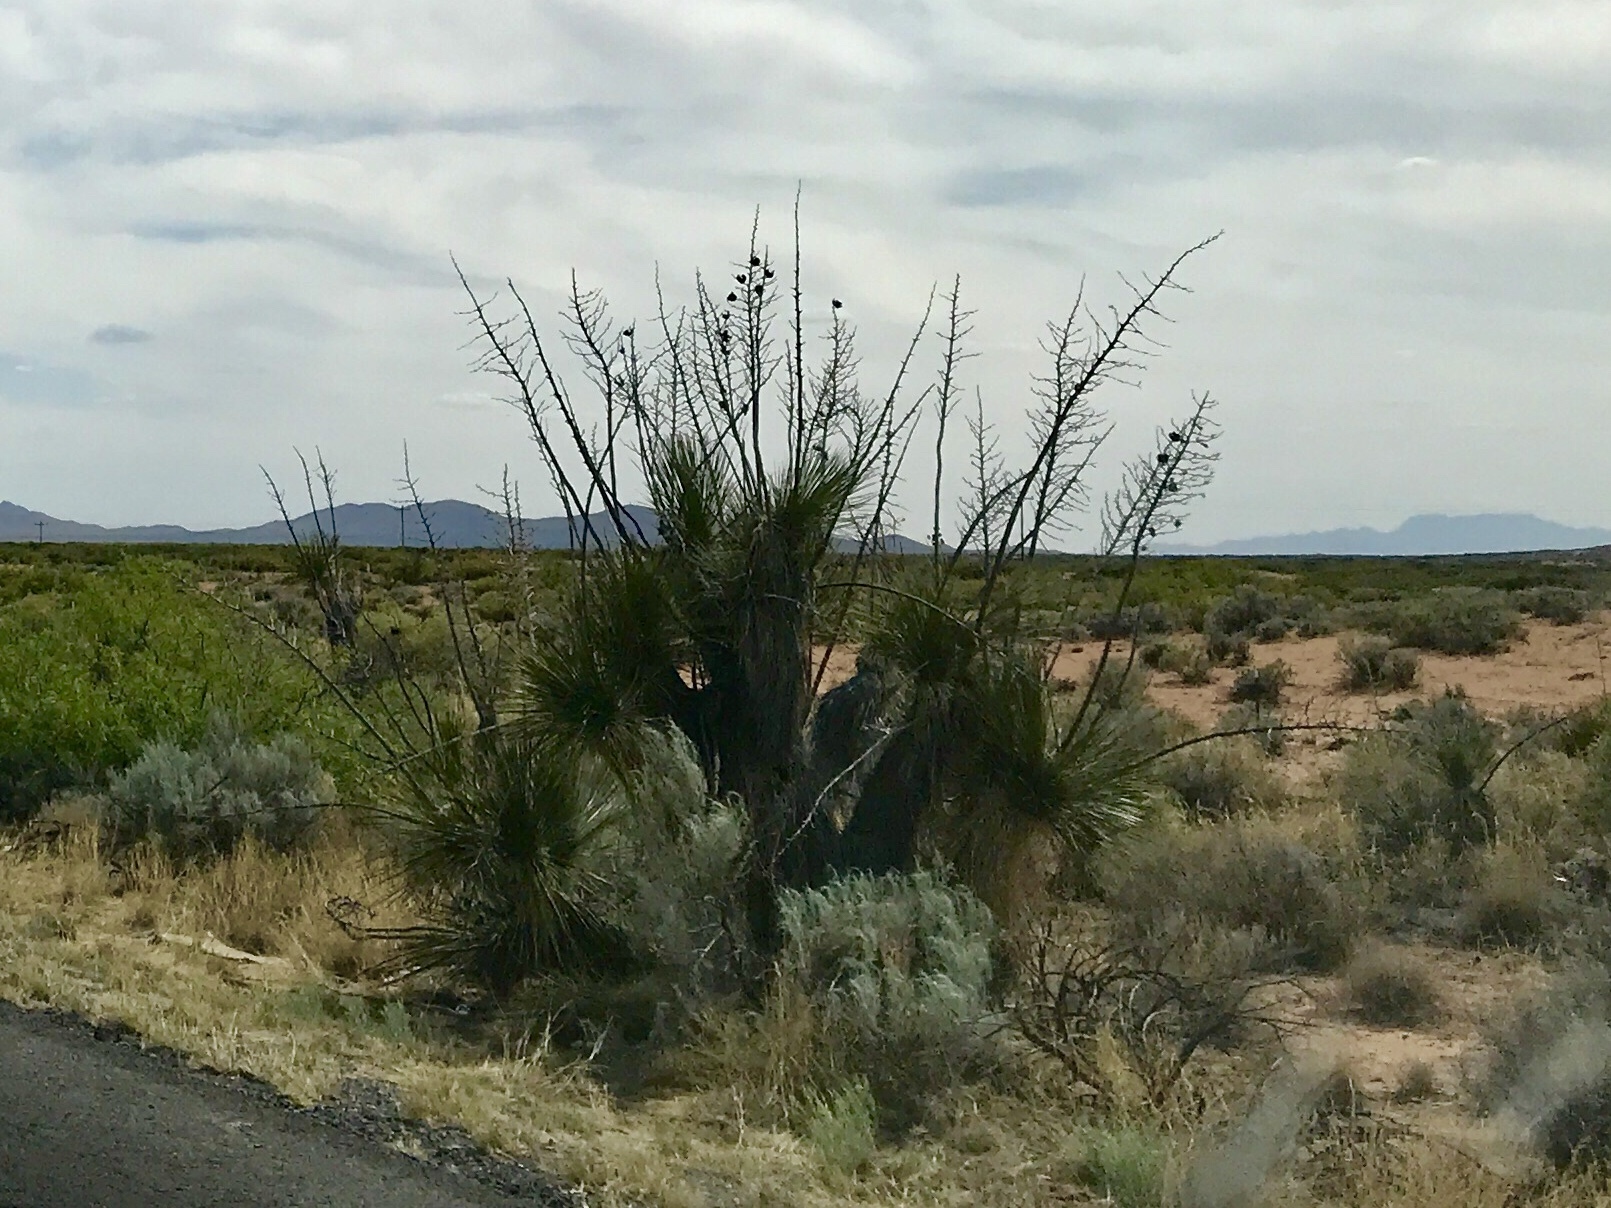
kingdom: Plantae
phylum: Tracheophyta
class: Liliopsida
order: Asparagales
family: Asparagaceae
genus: Yucca
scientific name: Yucca elata
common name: Palmella
